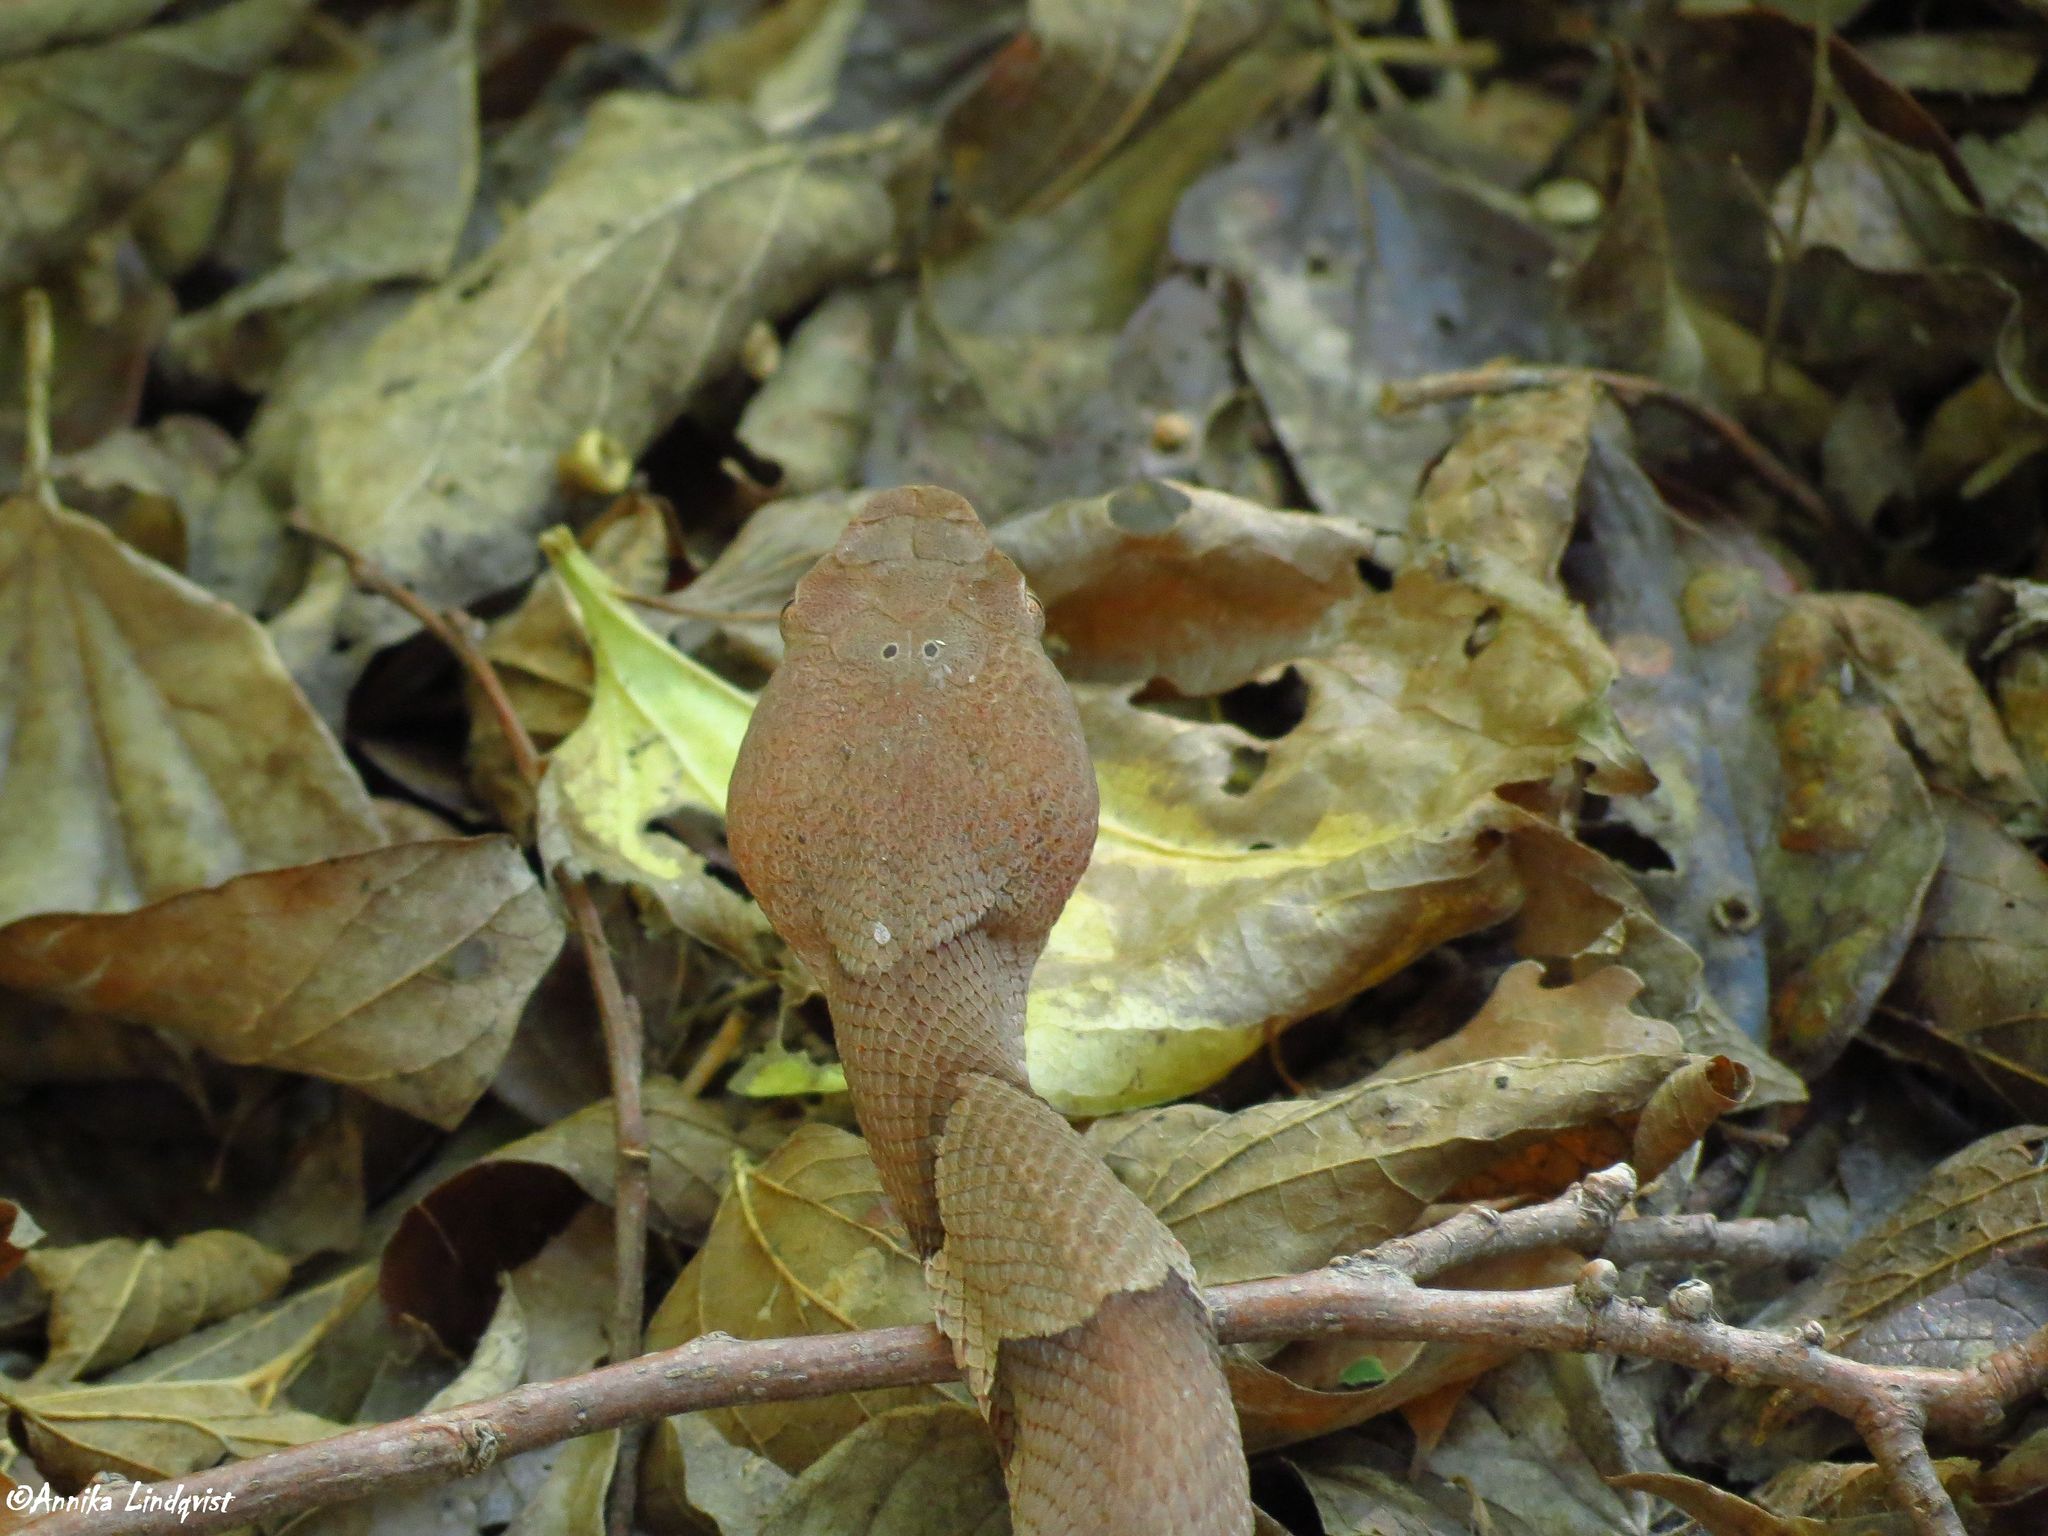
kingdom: Animalia
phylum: Chordata
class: Squamata
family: Viperidae
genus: Agkistrodon
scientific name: Agkistrodon contortrix
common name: Northern copperhead
